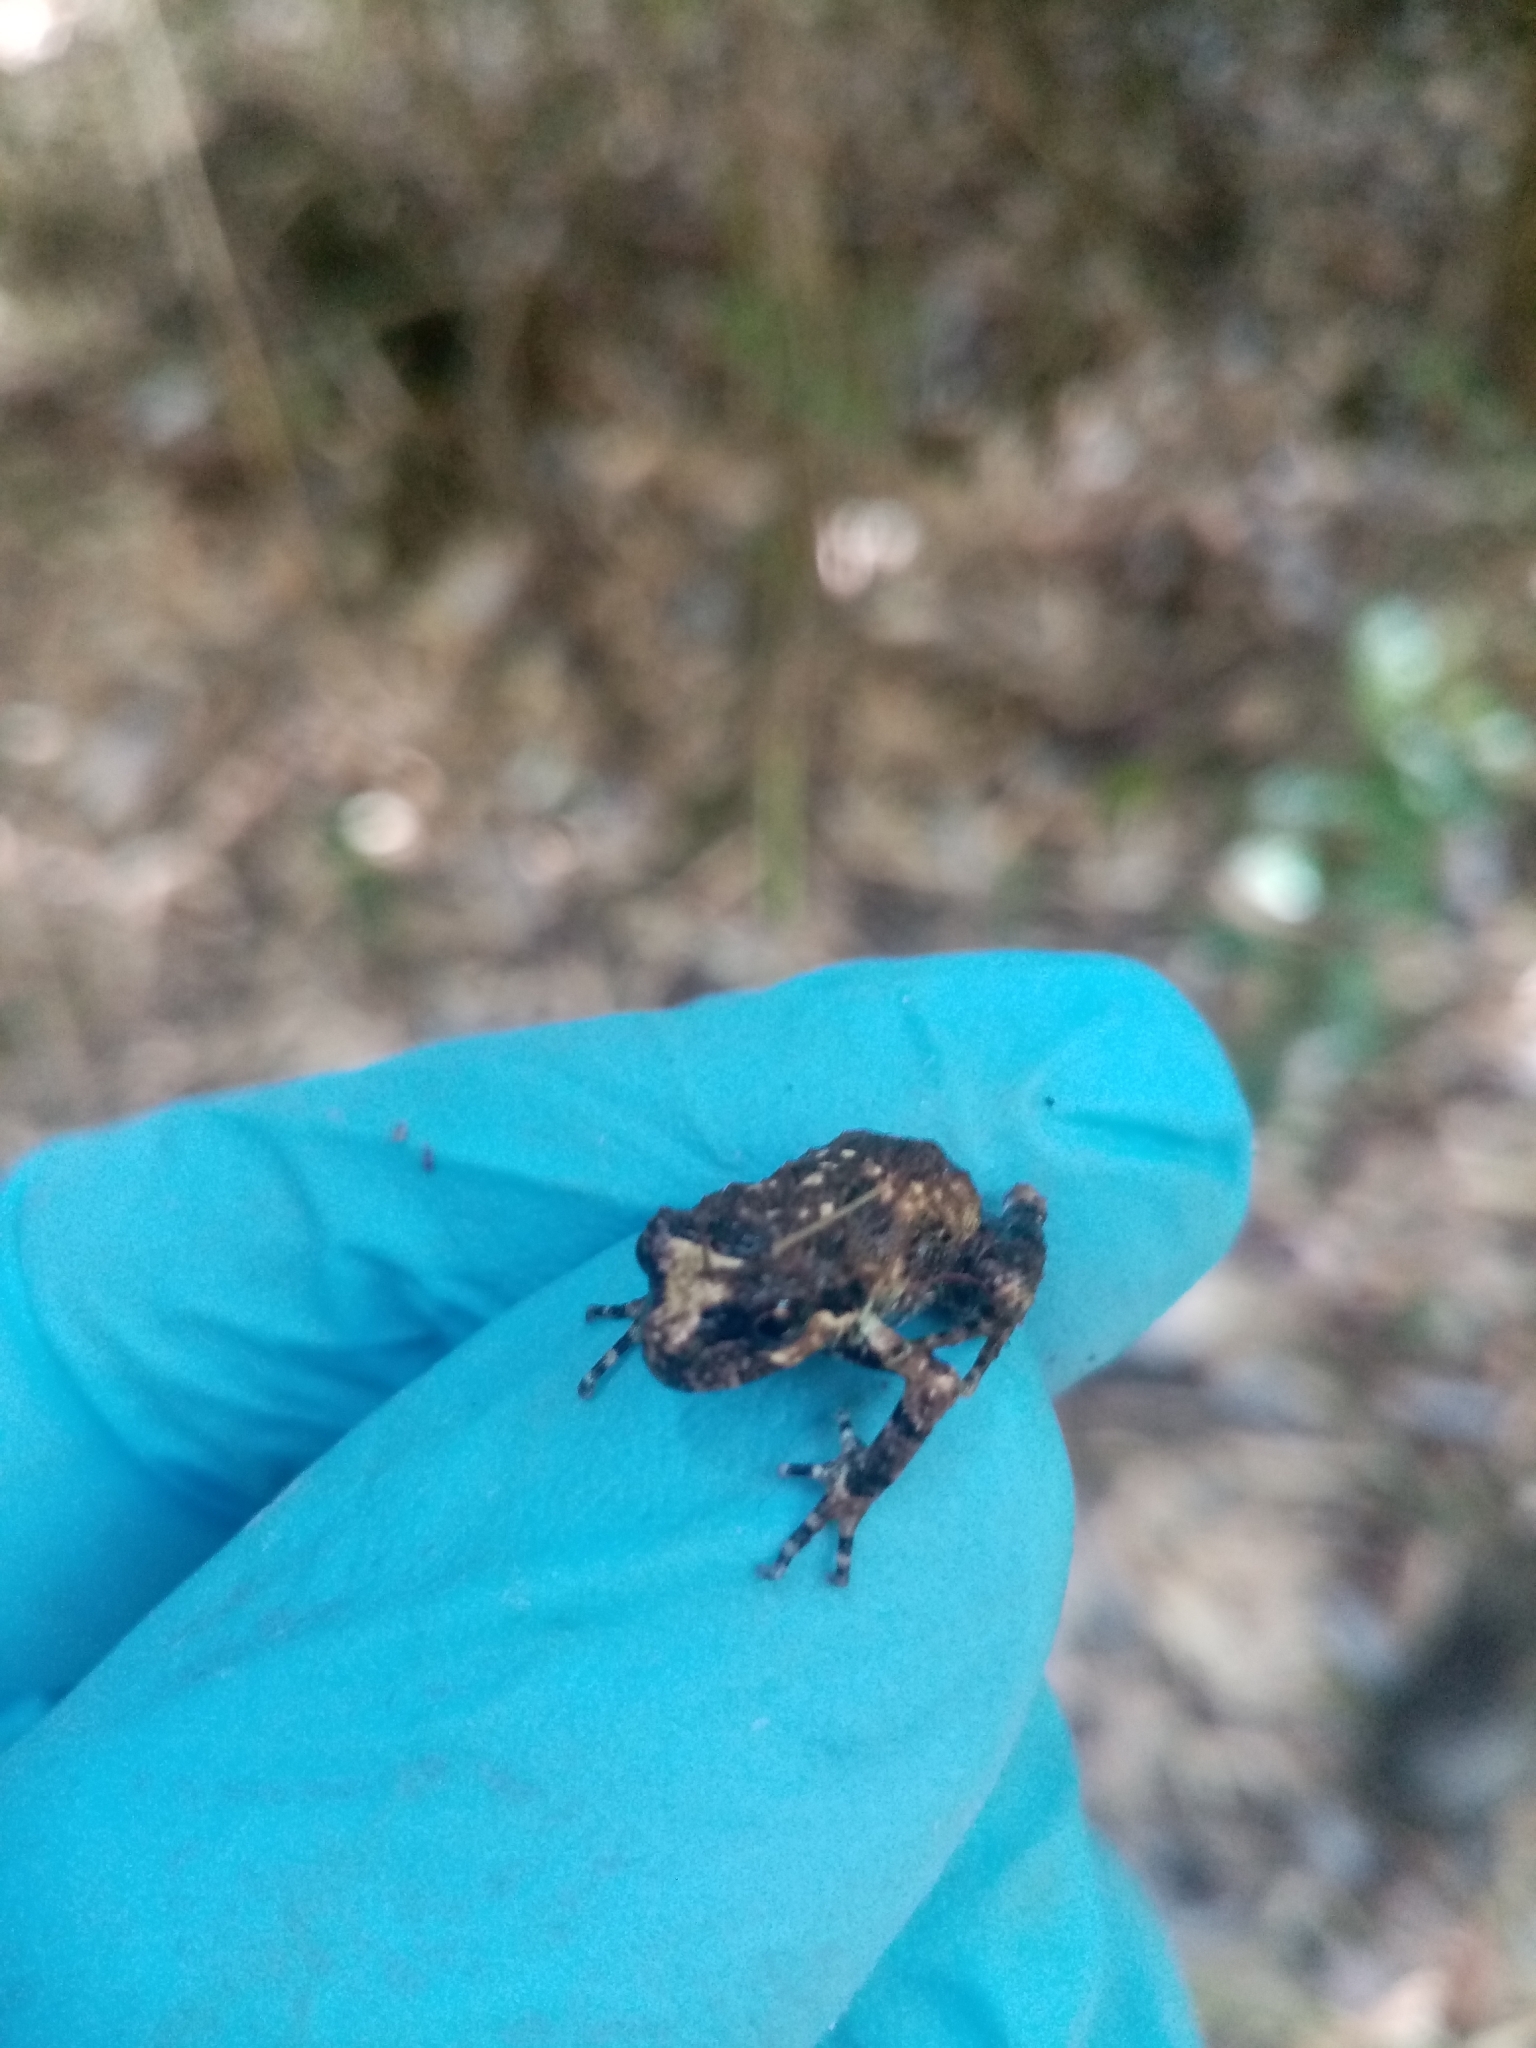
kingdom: Animalia
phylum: Chordata
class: Amphibia
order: Anura
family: Batrachylidae
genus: Batrachyla
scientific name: Batrachyla leptopus
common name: Gray wood frog
